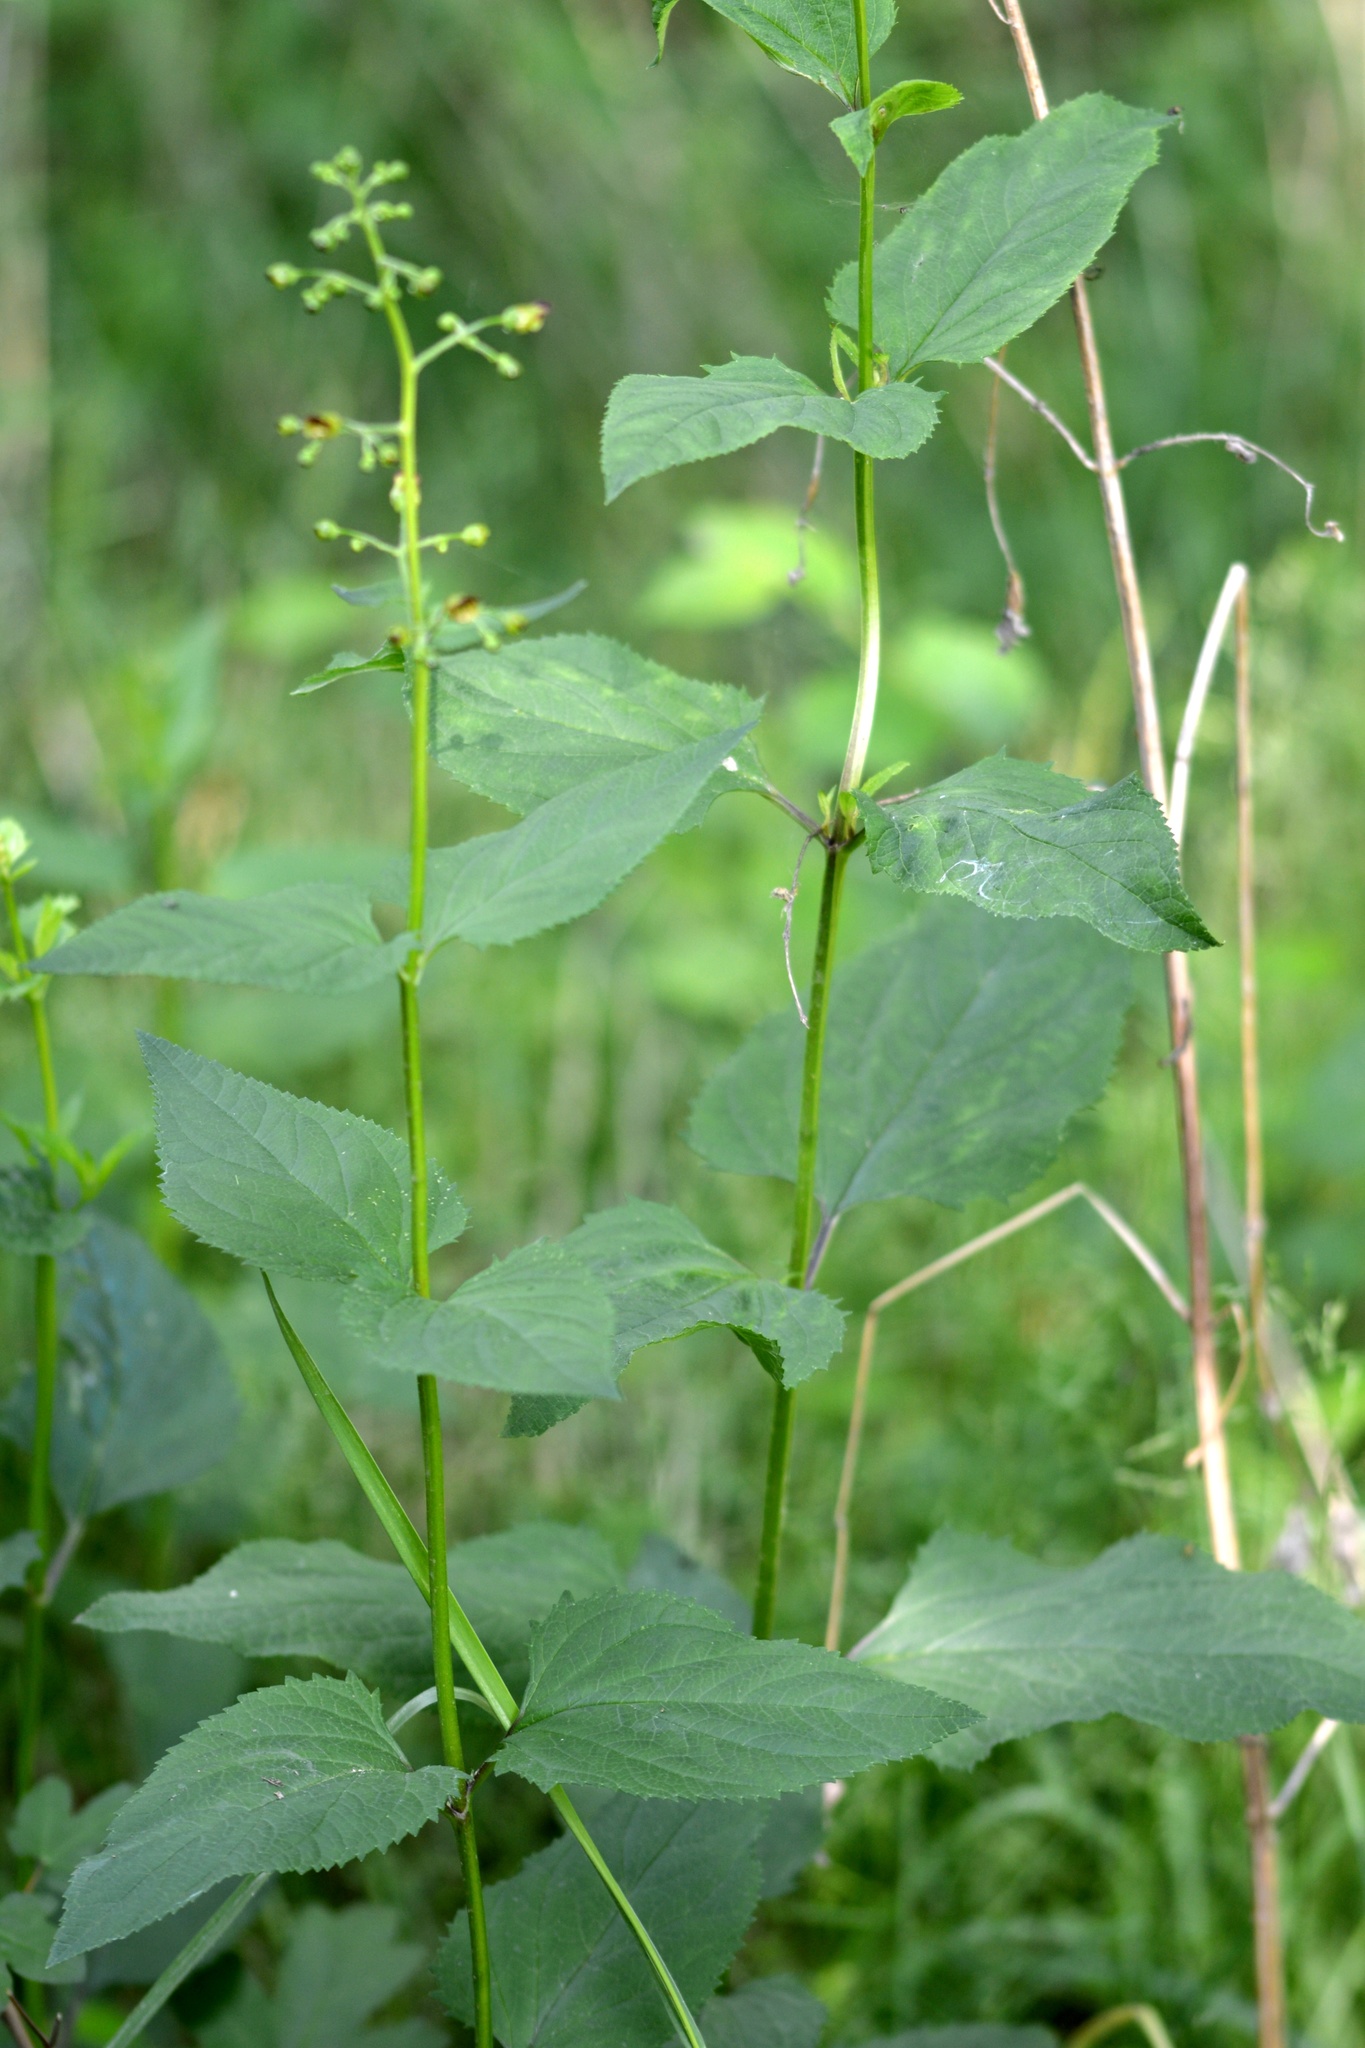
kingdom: Plantae
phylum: Tracheophyta
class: Magnoliopsida
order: Lamiales
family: Scrophulariaceae
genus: Scrophularia
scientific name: Scrophularia nodosa
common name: Common figwort
